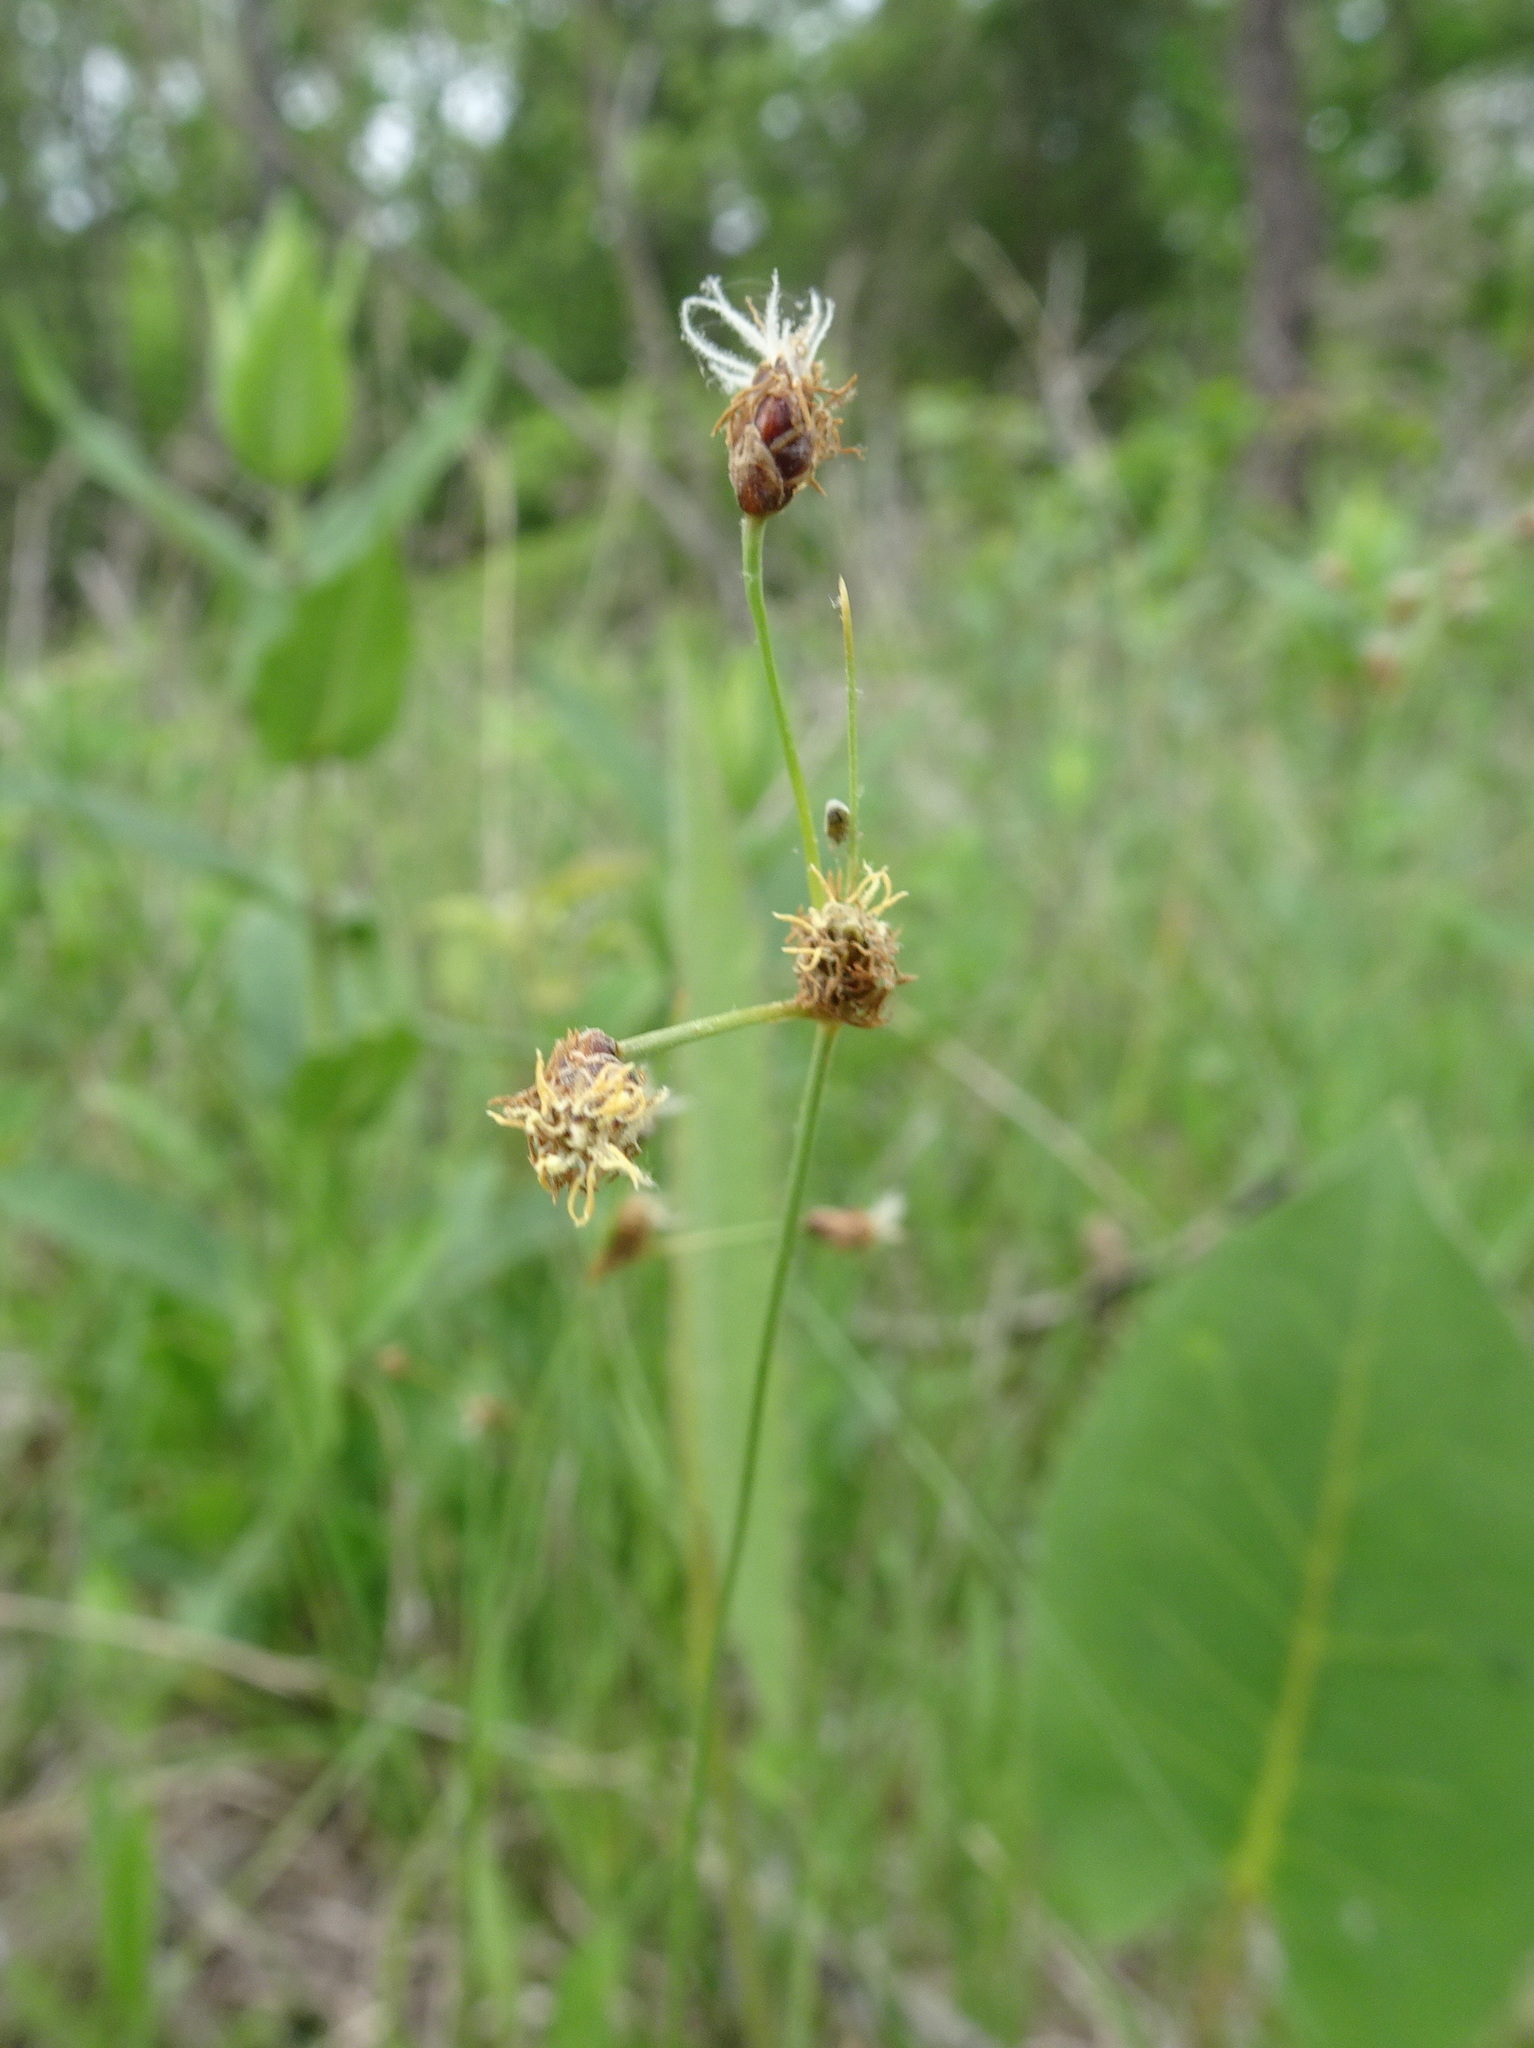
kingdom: Plantae
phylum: Tracheophyta
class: Liliopsida
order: Poales
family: Cyperaceae
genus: Fimbristylis
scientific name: Fimbristylis puberula
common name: Hairy fimbristylis
